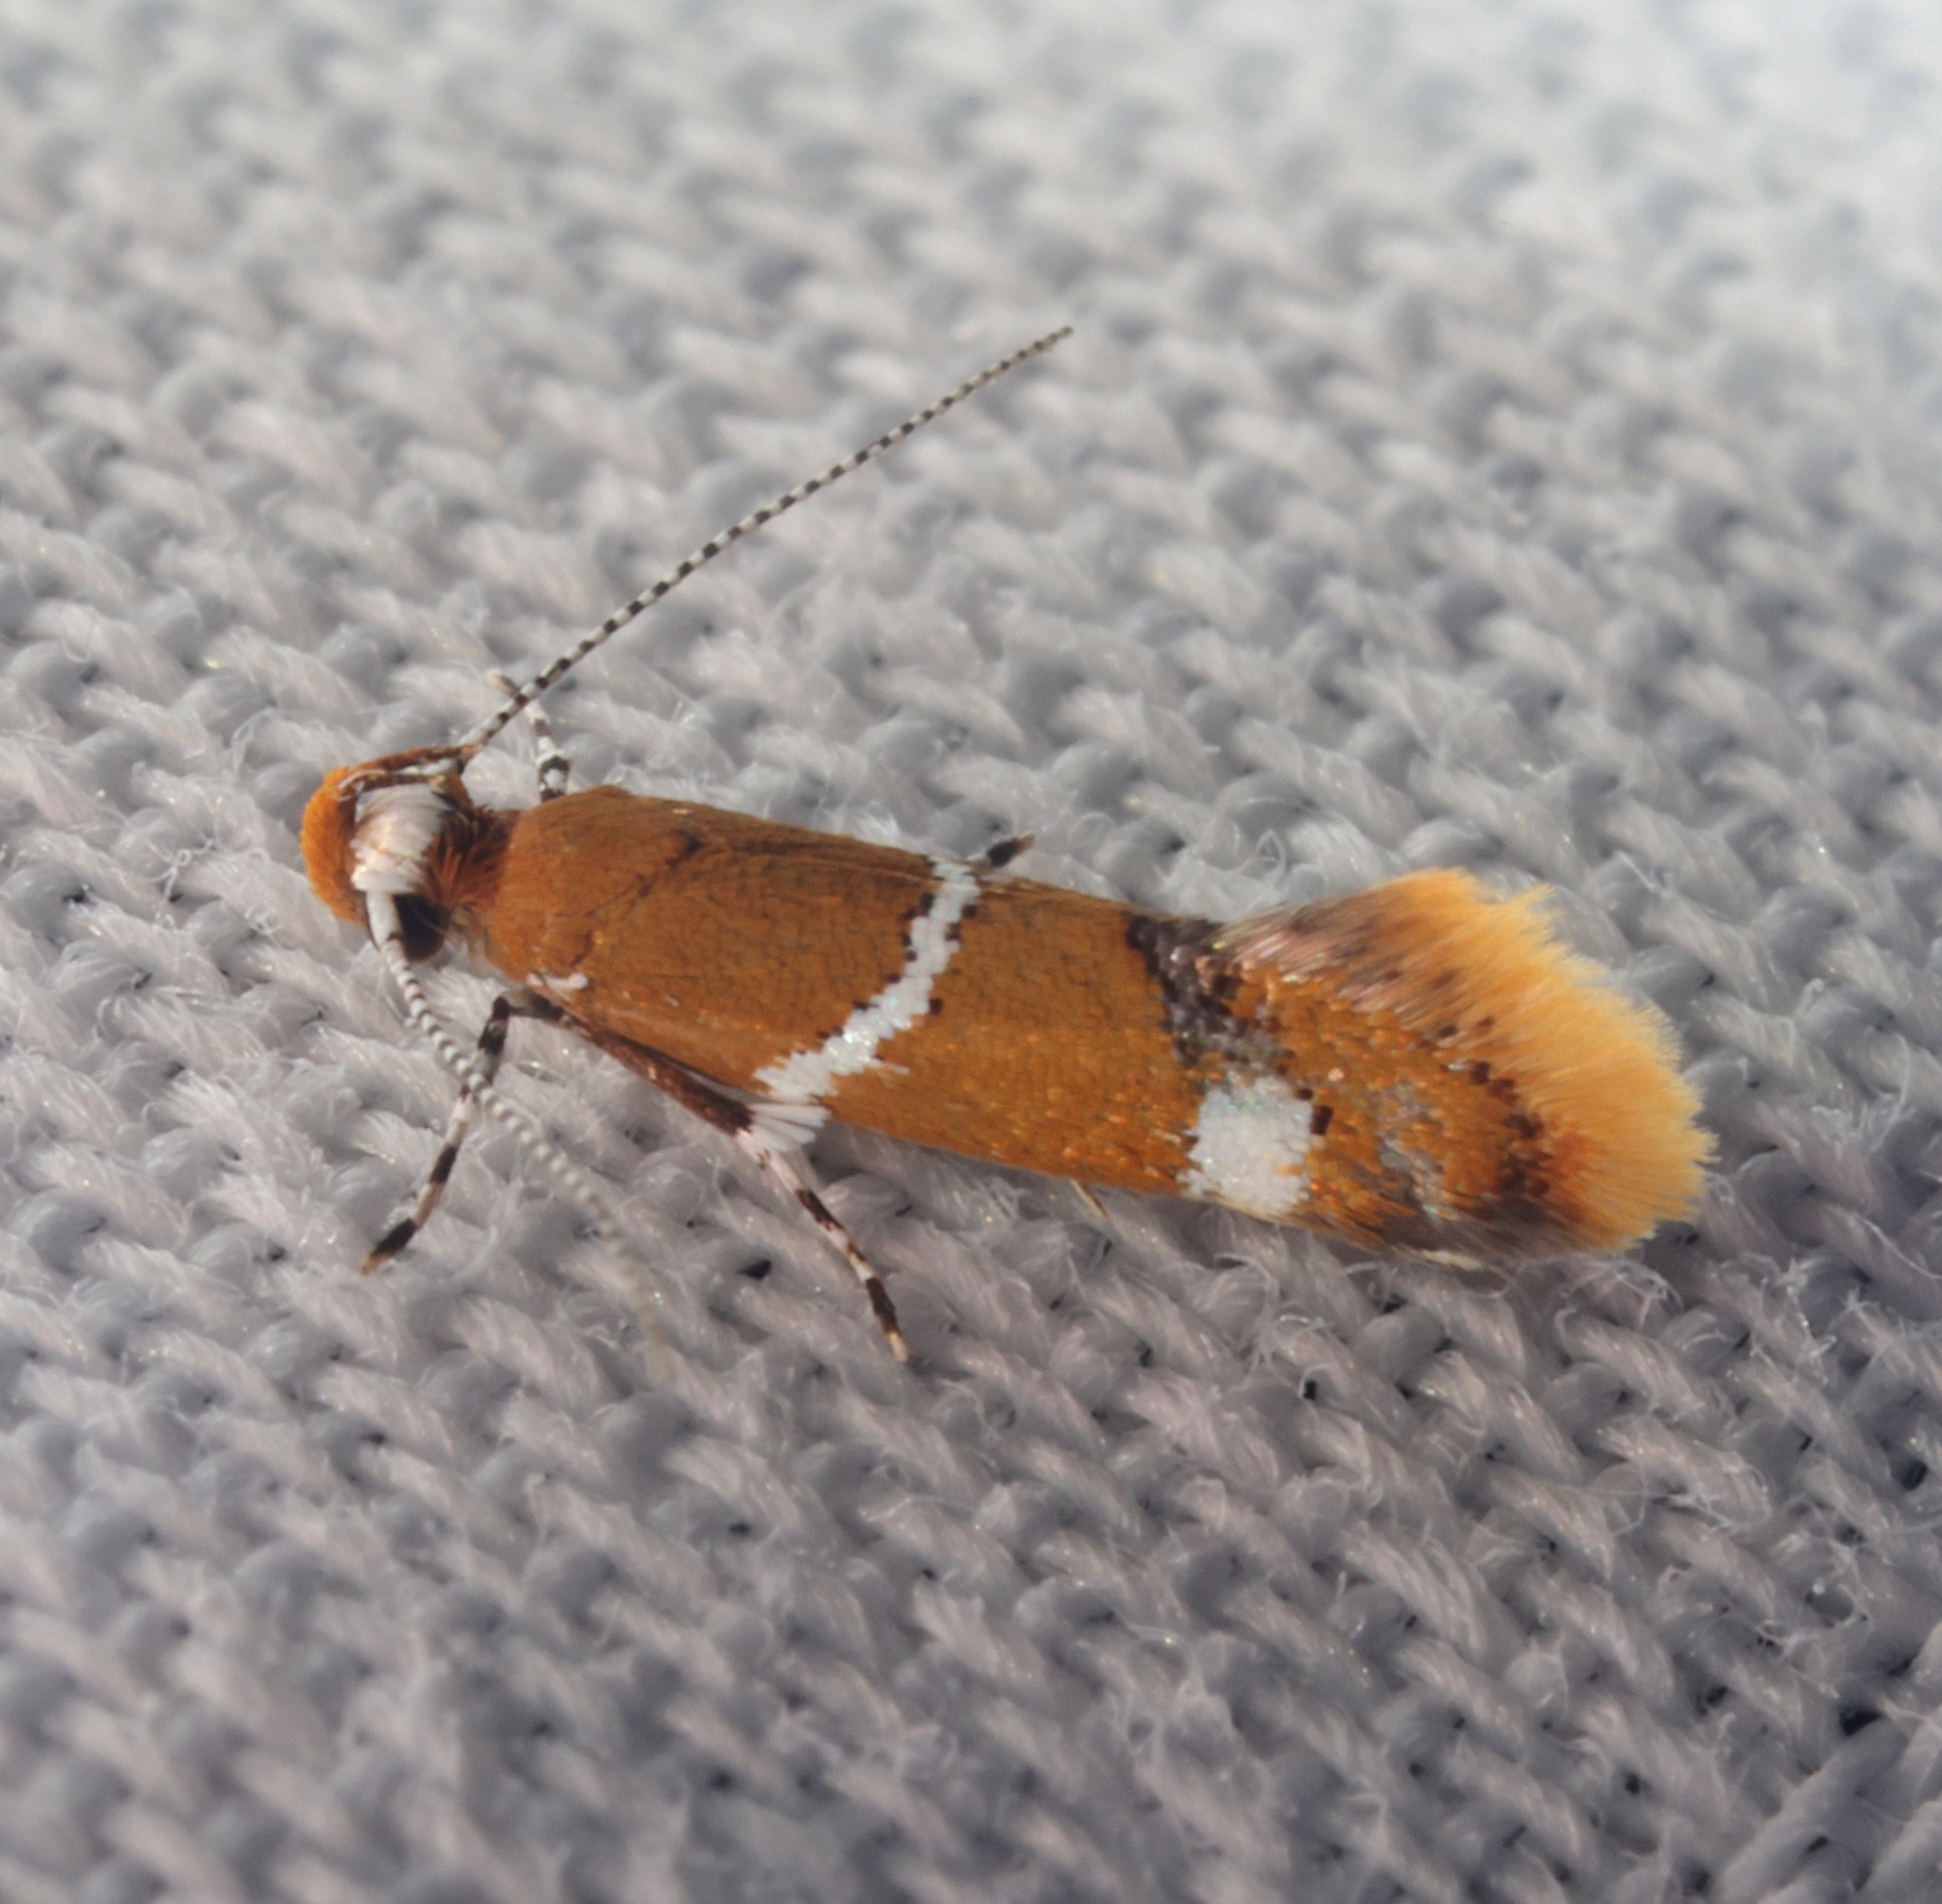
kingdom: Animalia
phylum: Arthropoda
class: Insecta
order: Lepidoptera
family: Oecophoridae
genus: Promalactis
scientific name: Promalactis albisquama
